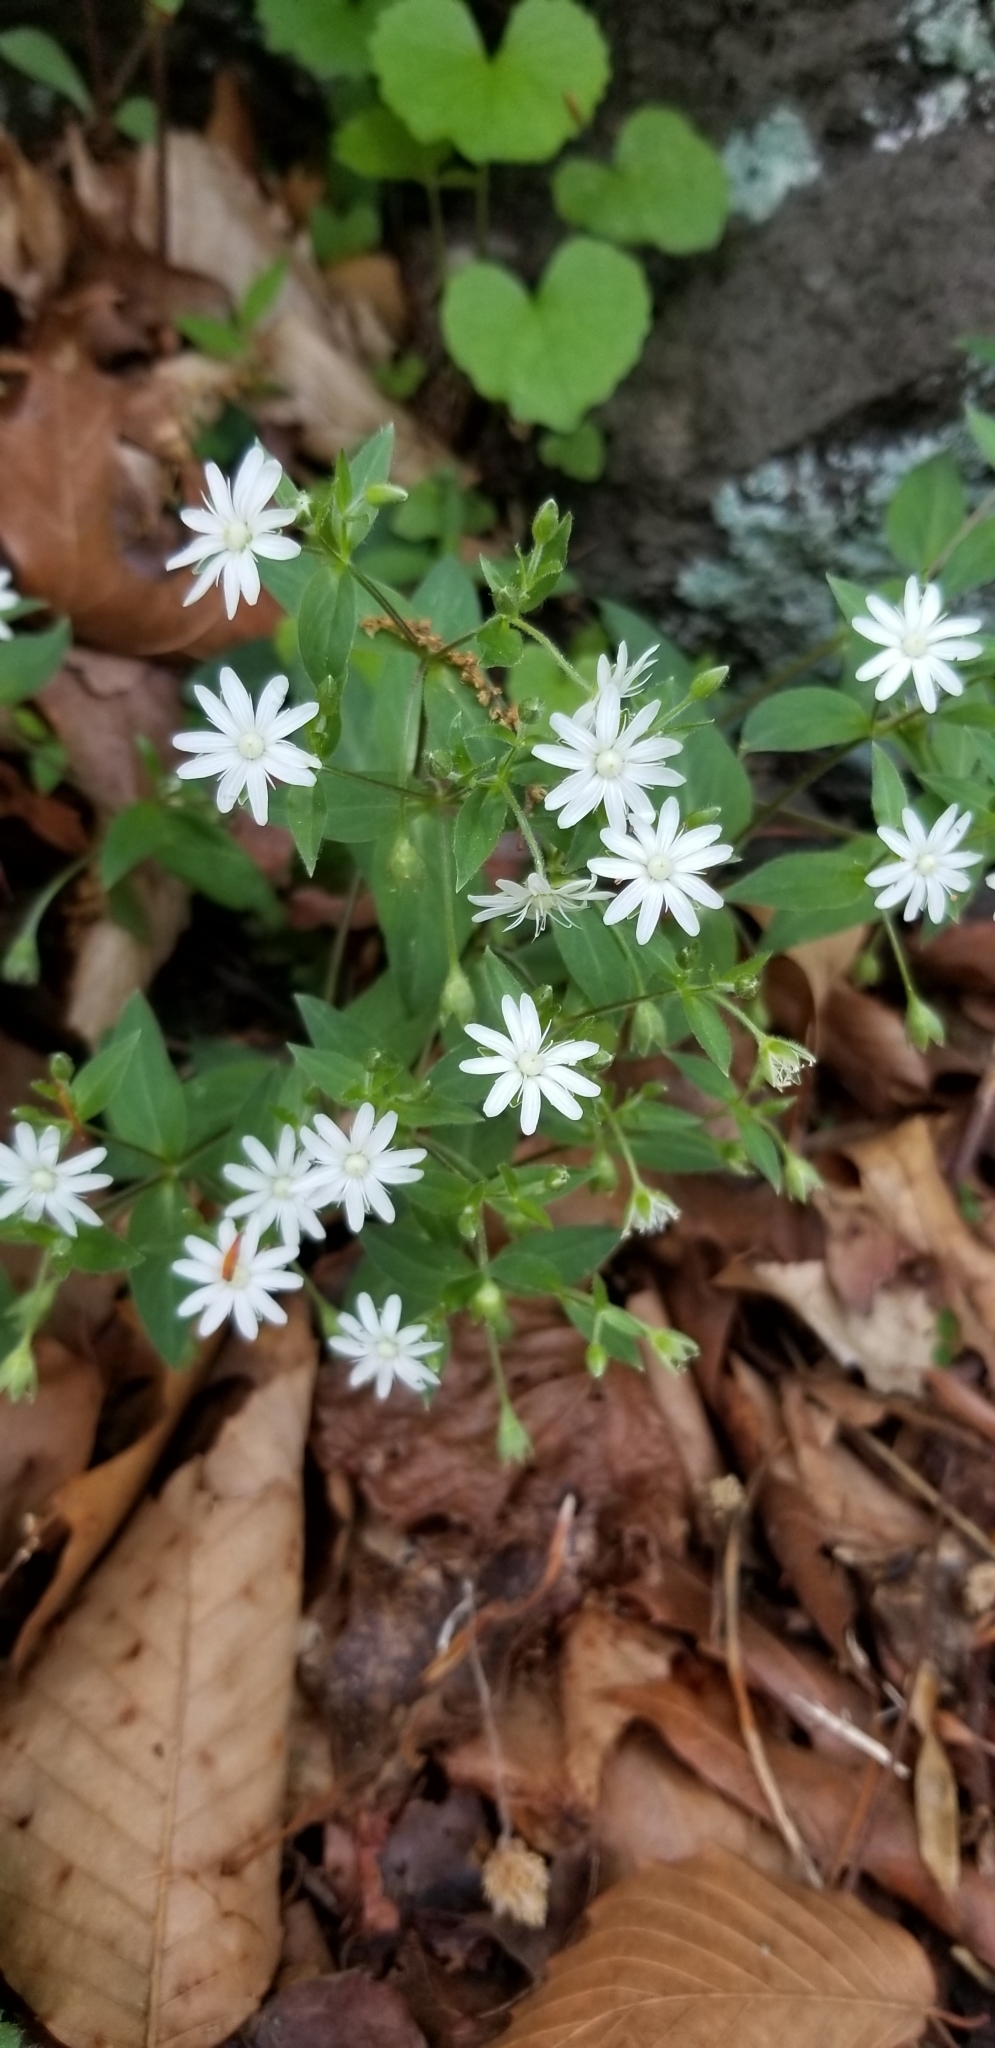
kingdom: Plantae
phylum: Tracheophyta
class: Magnoliopsida
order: Caryophyllales
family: Caryophyllaceae
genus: Stellaria
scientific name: Stellaria pubera
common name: Star chickweed
